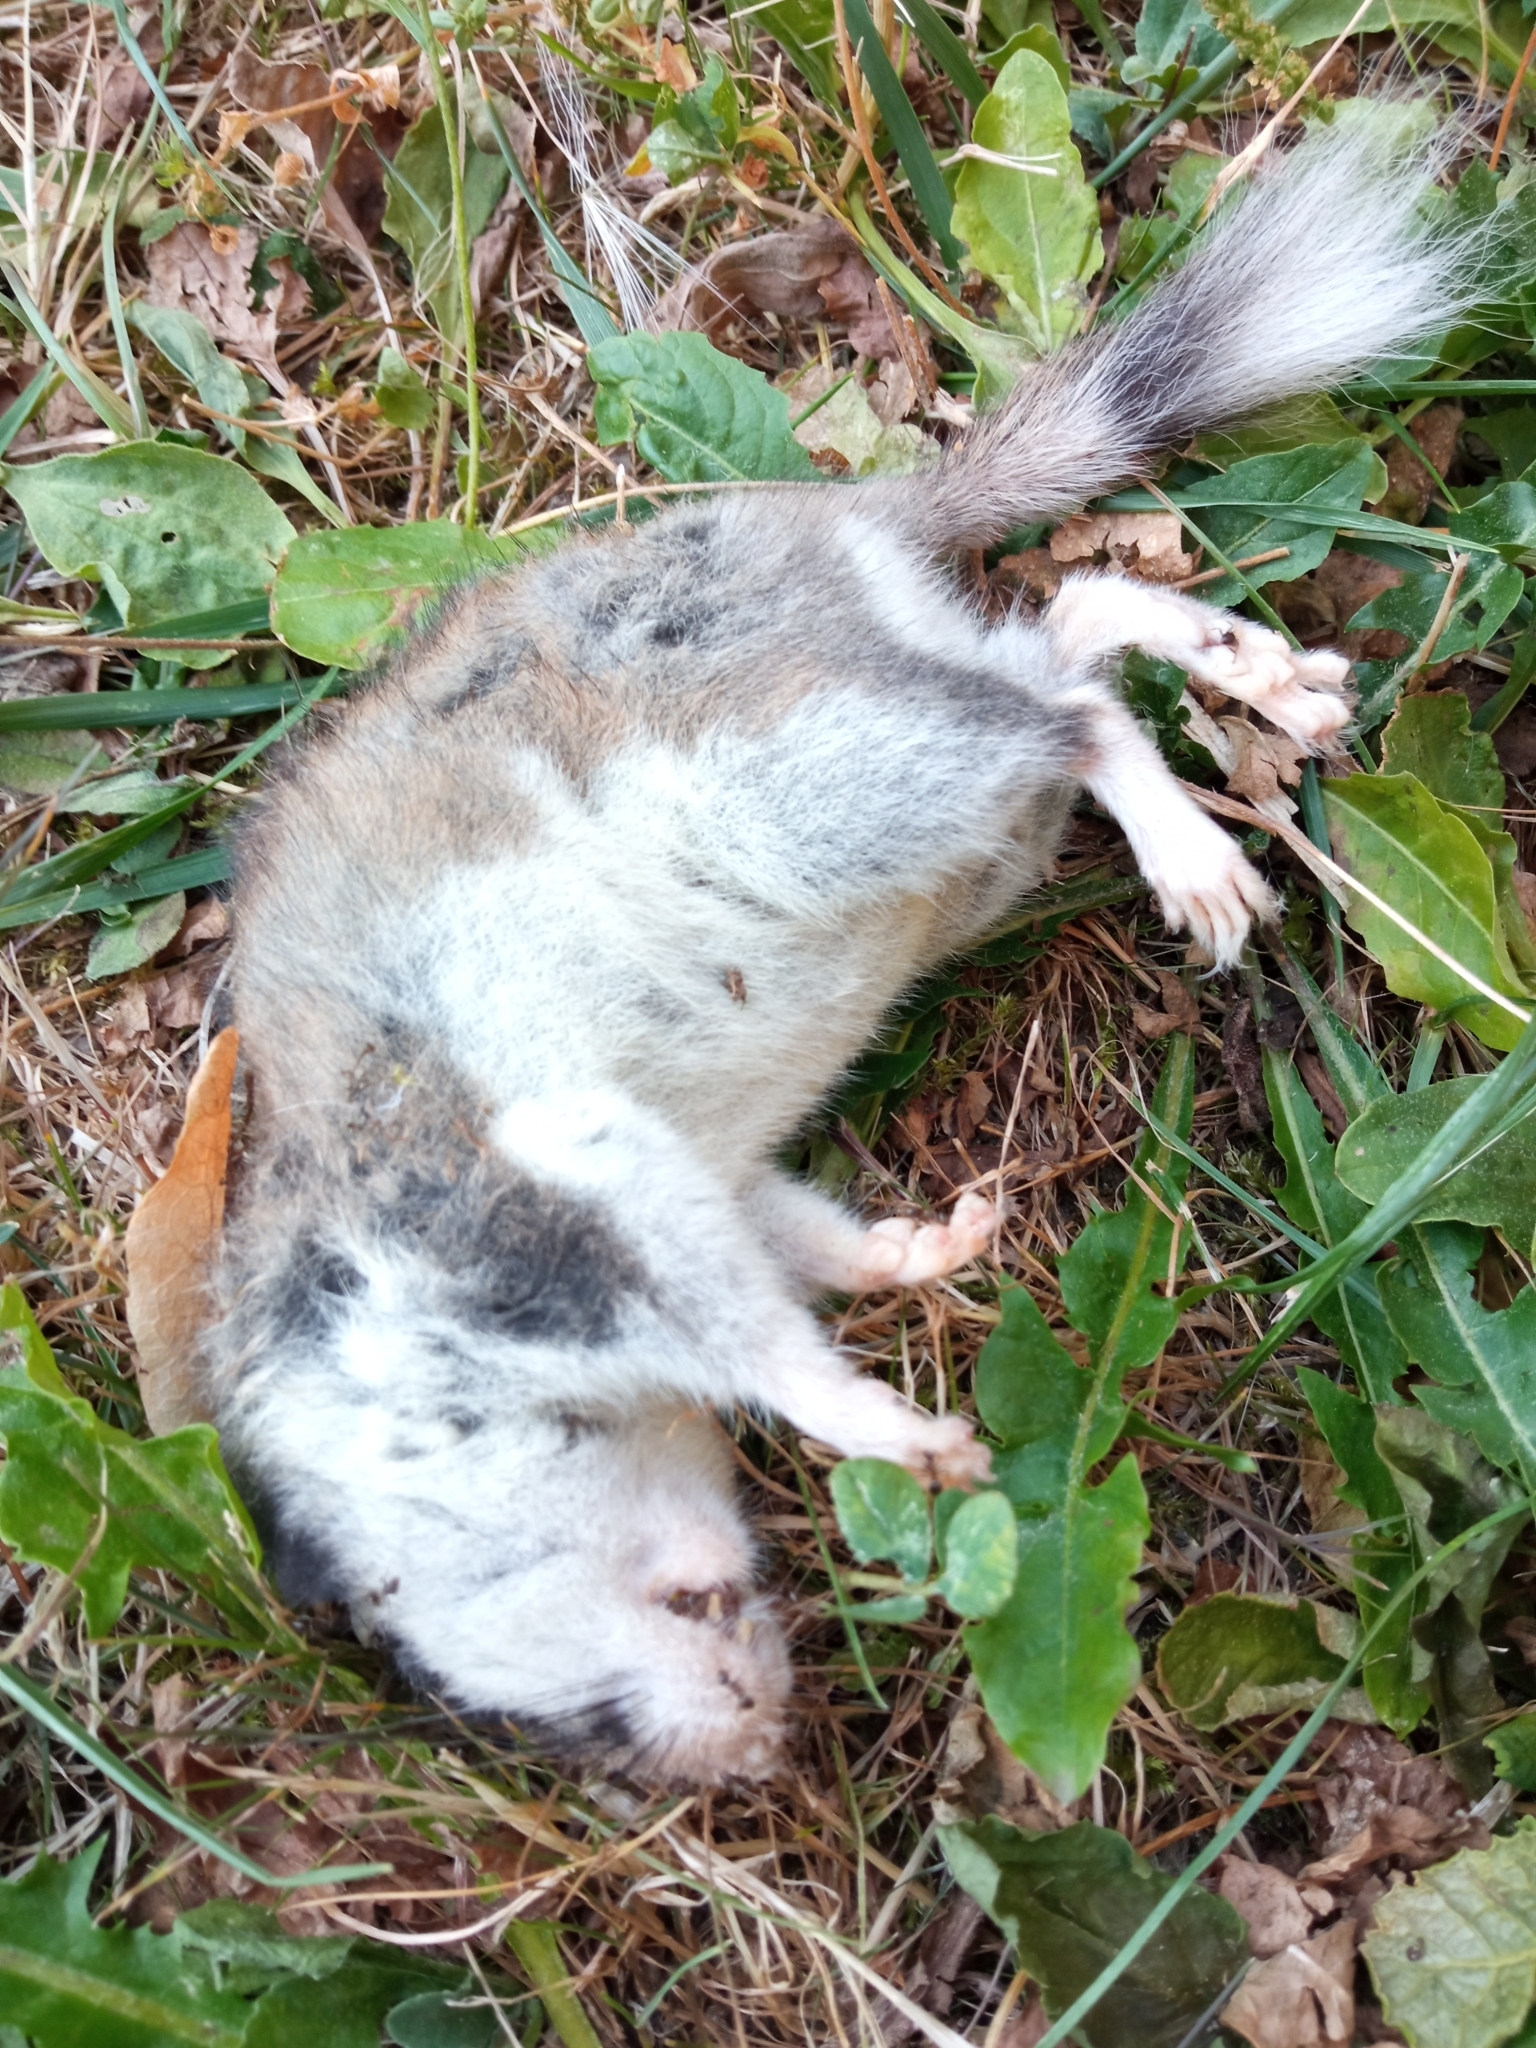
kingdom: Animalia
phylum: Chordata
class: Mammalia
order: Rodentia
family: Gliridae
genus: Eliomys
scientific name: Eliomys quercinus
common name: Garden dormouse
